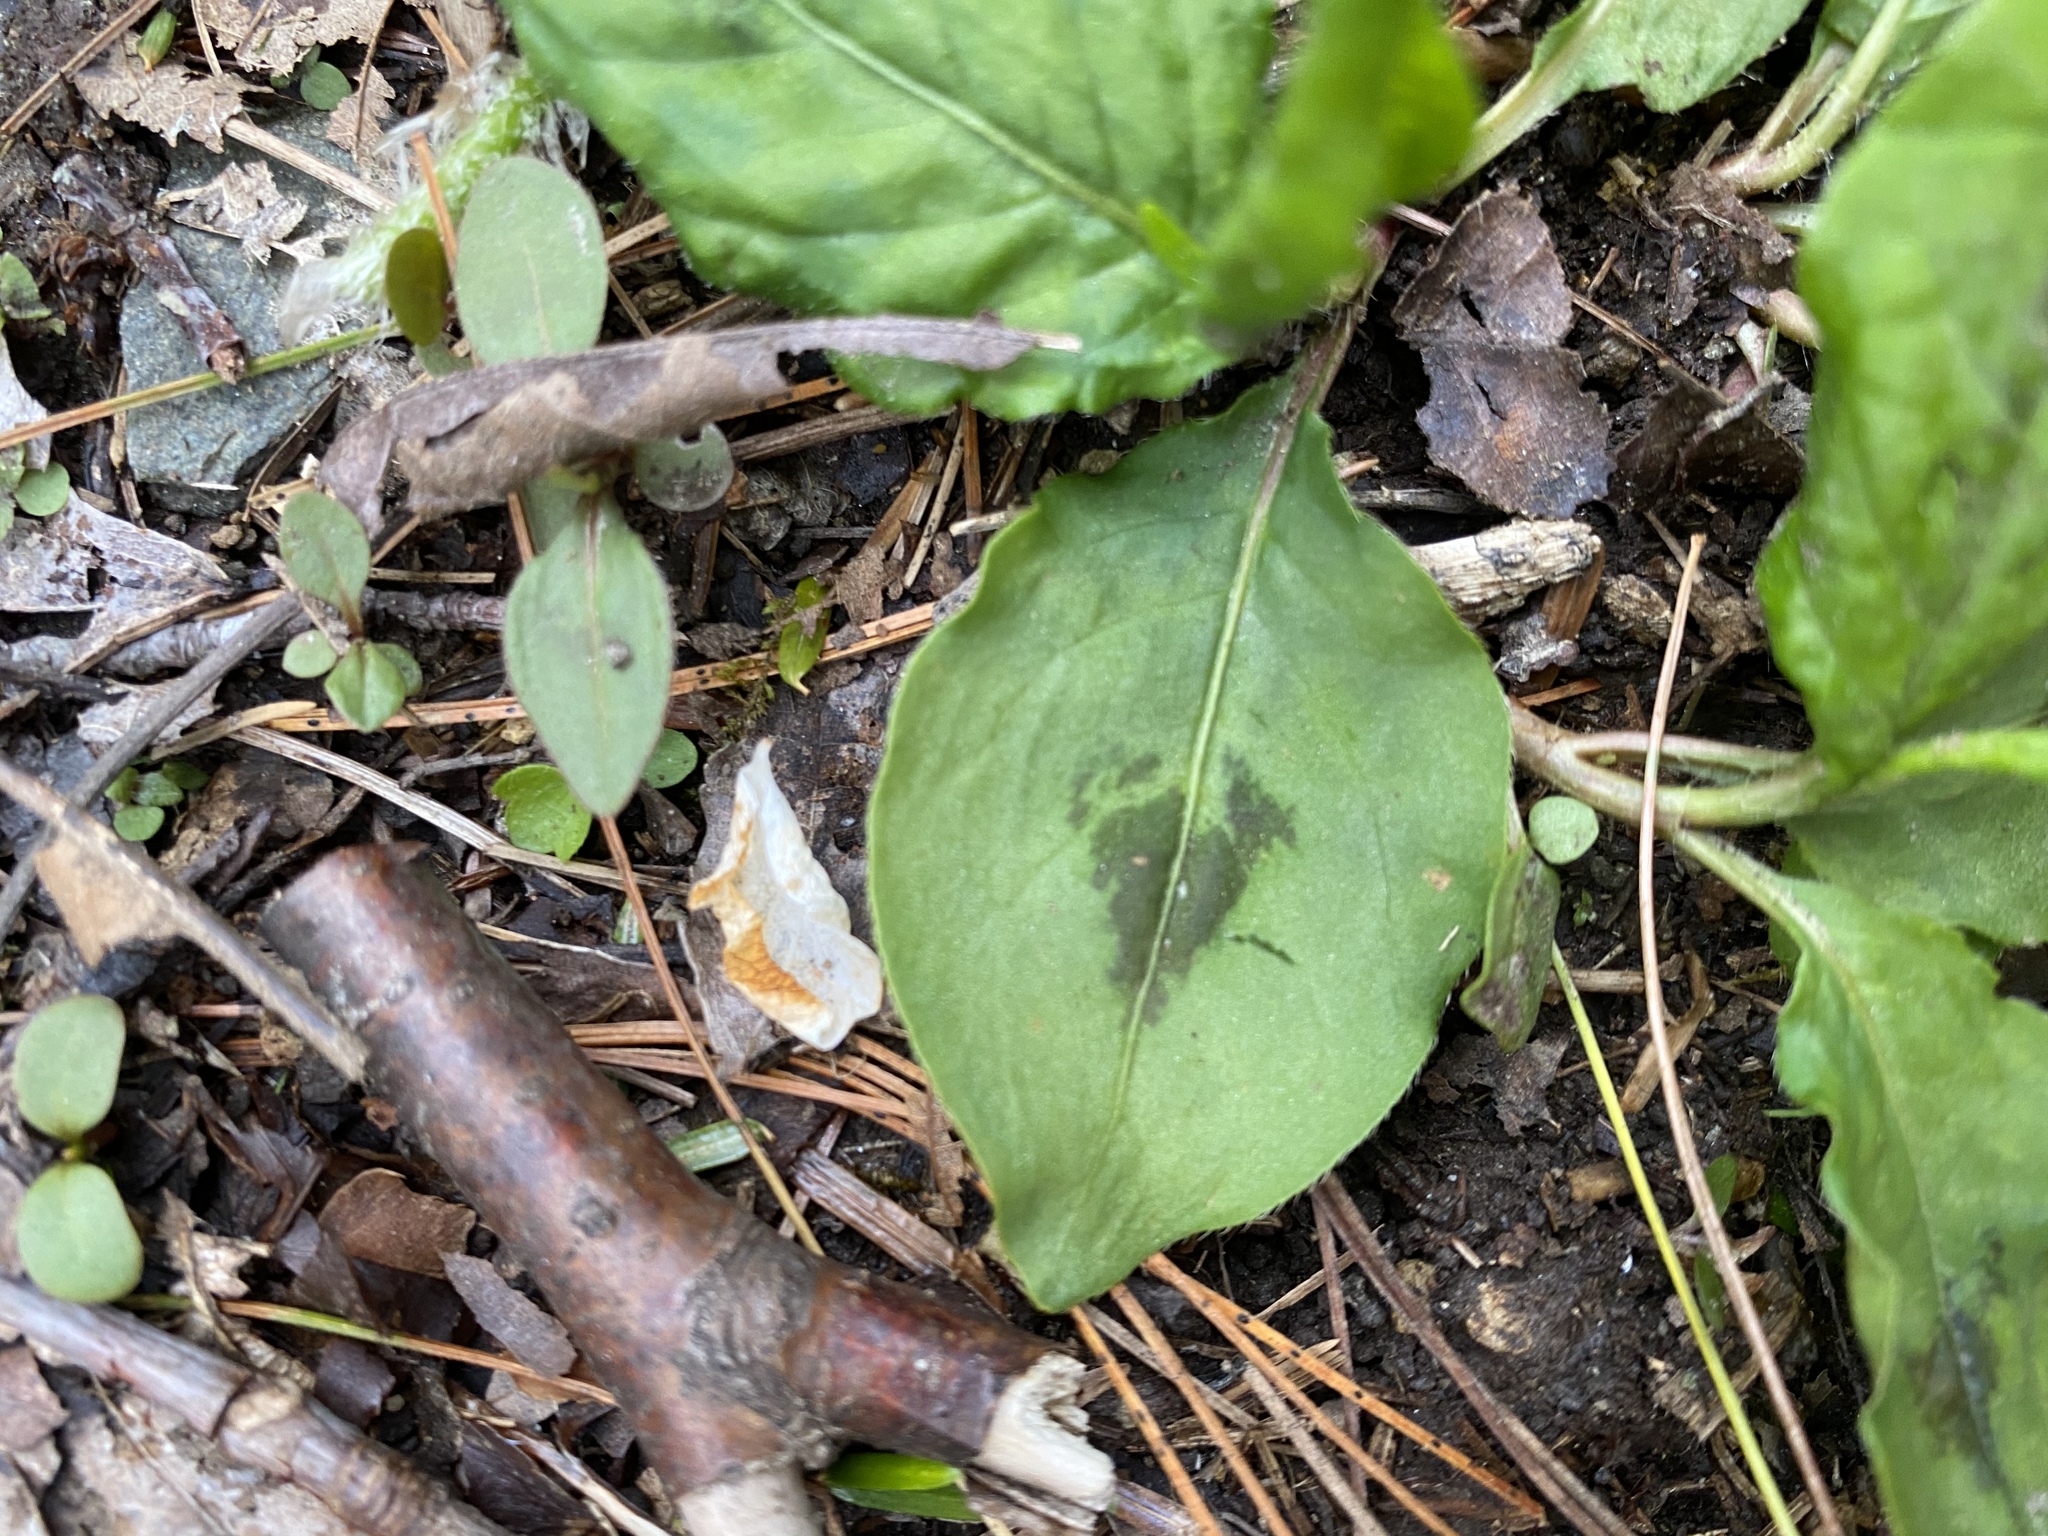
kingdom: Plantae
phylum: Tracheophyta
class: Magnoliopsida
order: Caryophyllales
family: Polygonaceae
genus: Persicaria
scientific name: Persicaria virginiana
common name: Jumpseed
